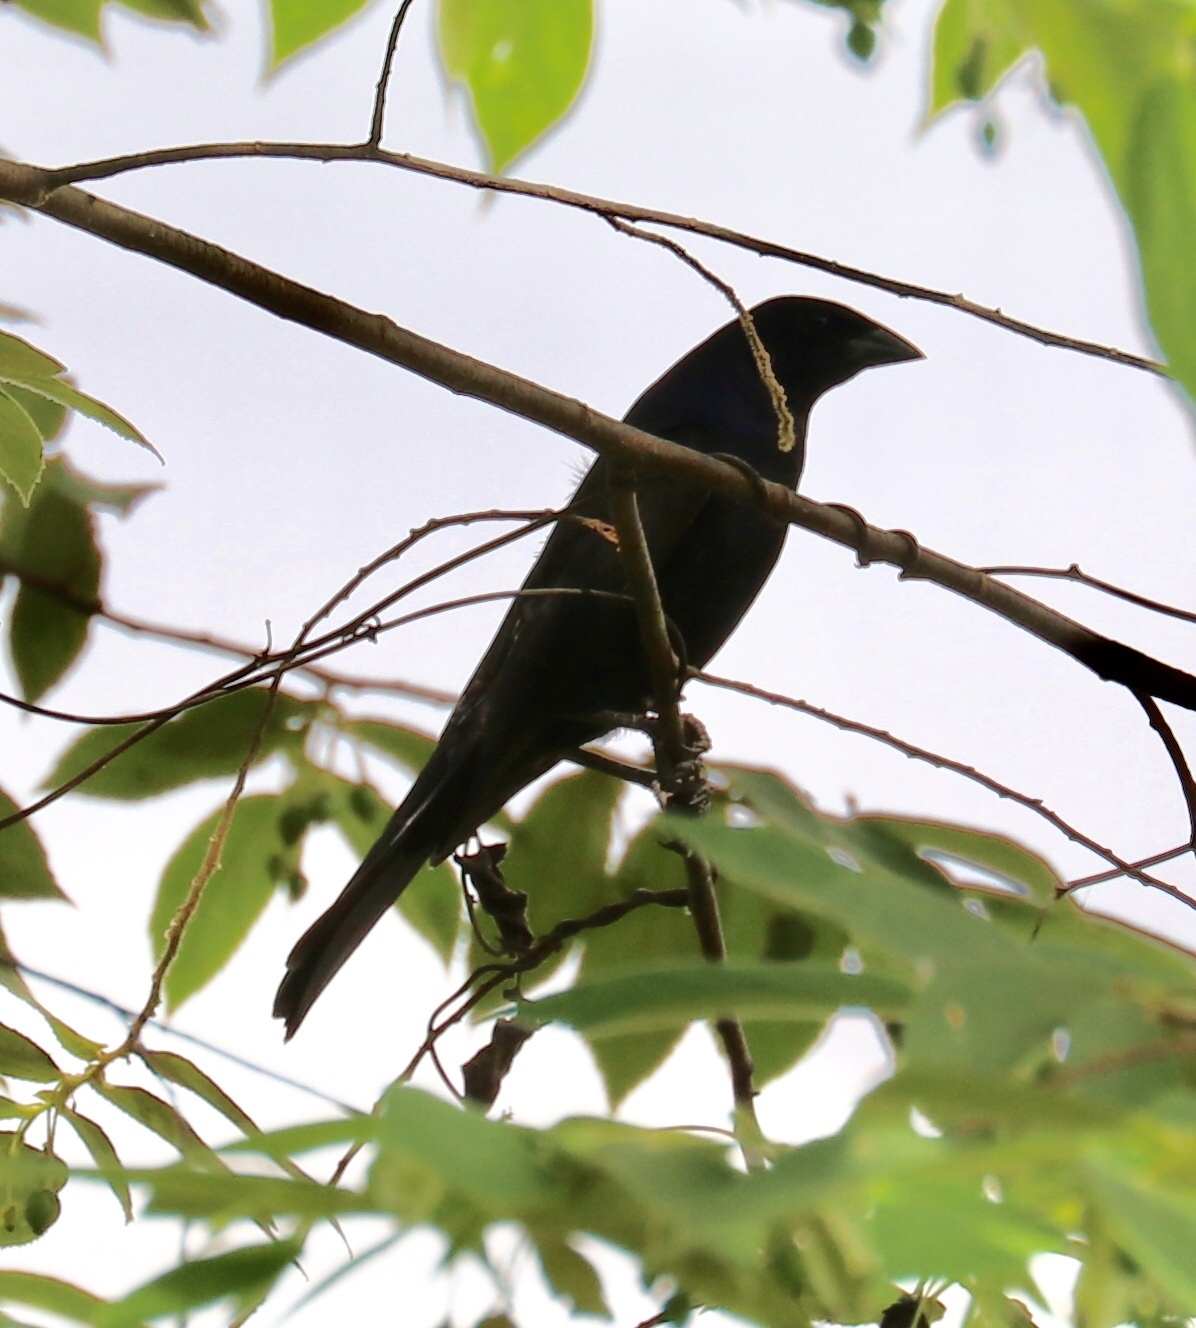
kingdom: Animalia
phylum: Chordata
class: Aves
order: Passeriformes
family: Icteridae
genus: Molothrus
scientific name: Molothrus bonariensis
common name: Shiny cowbird
